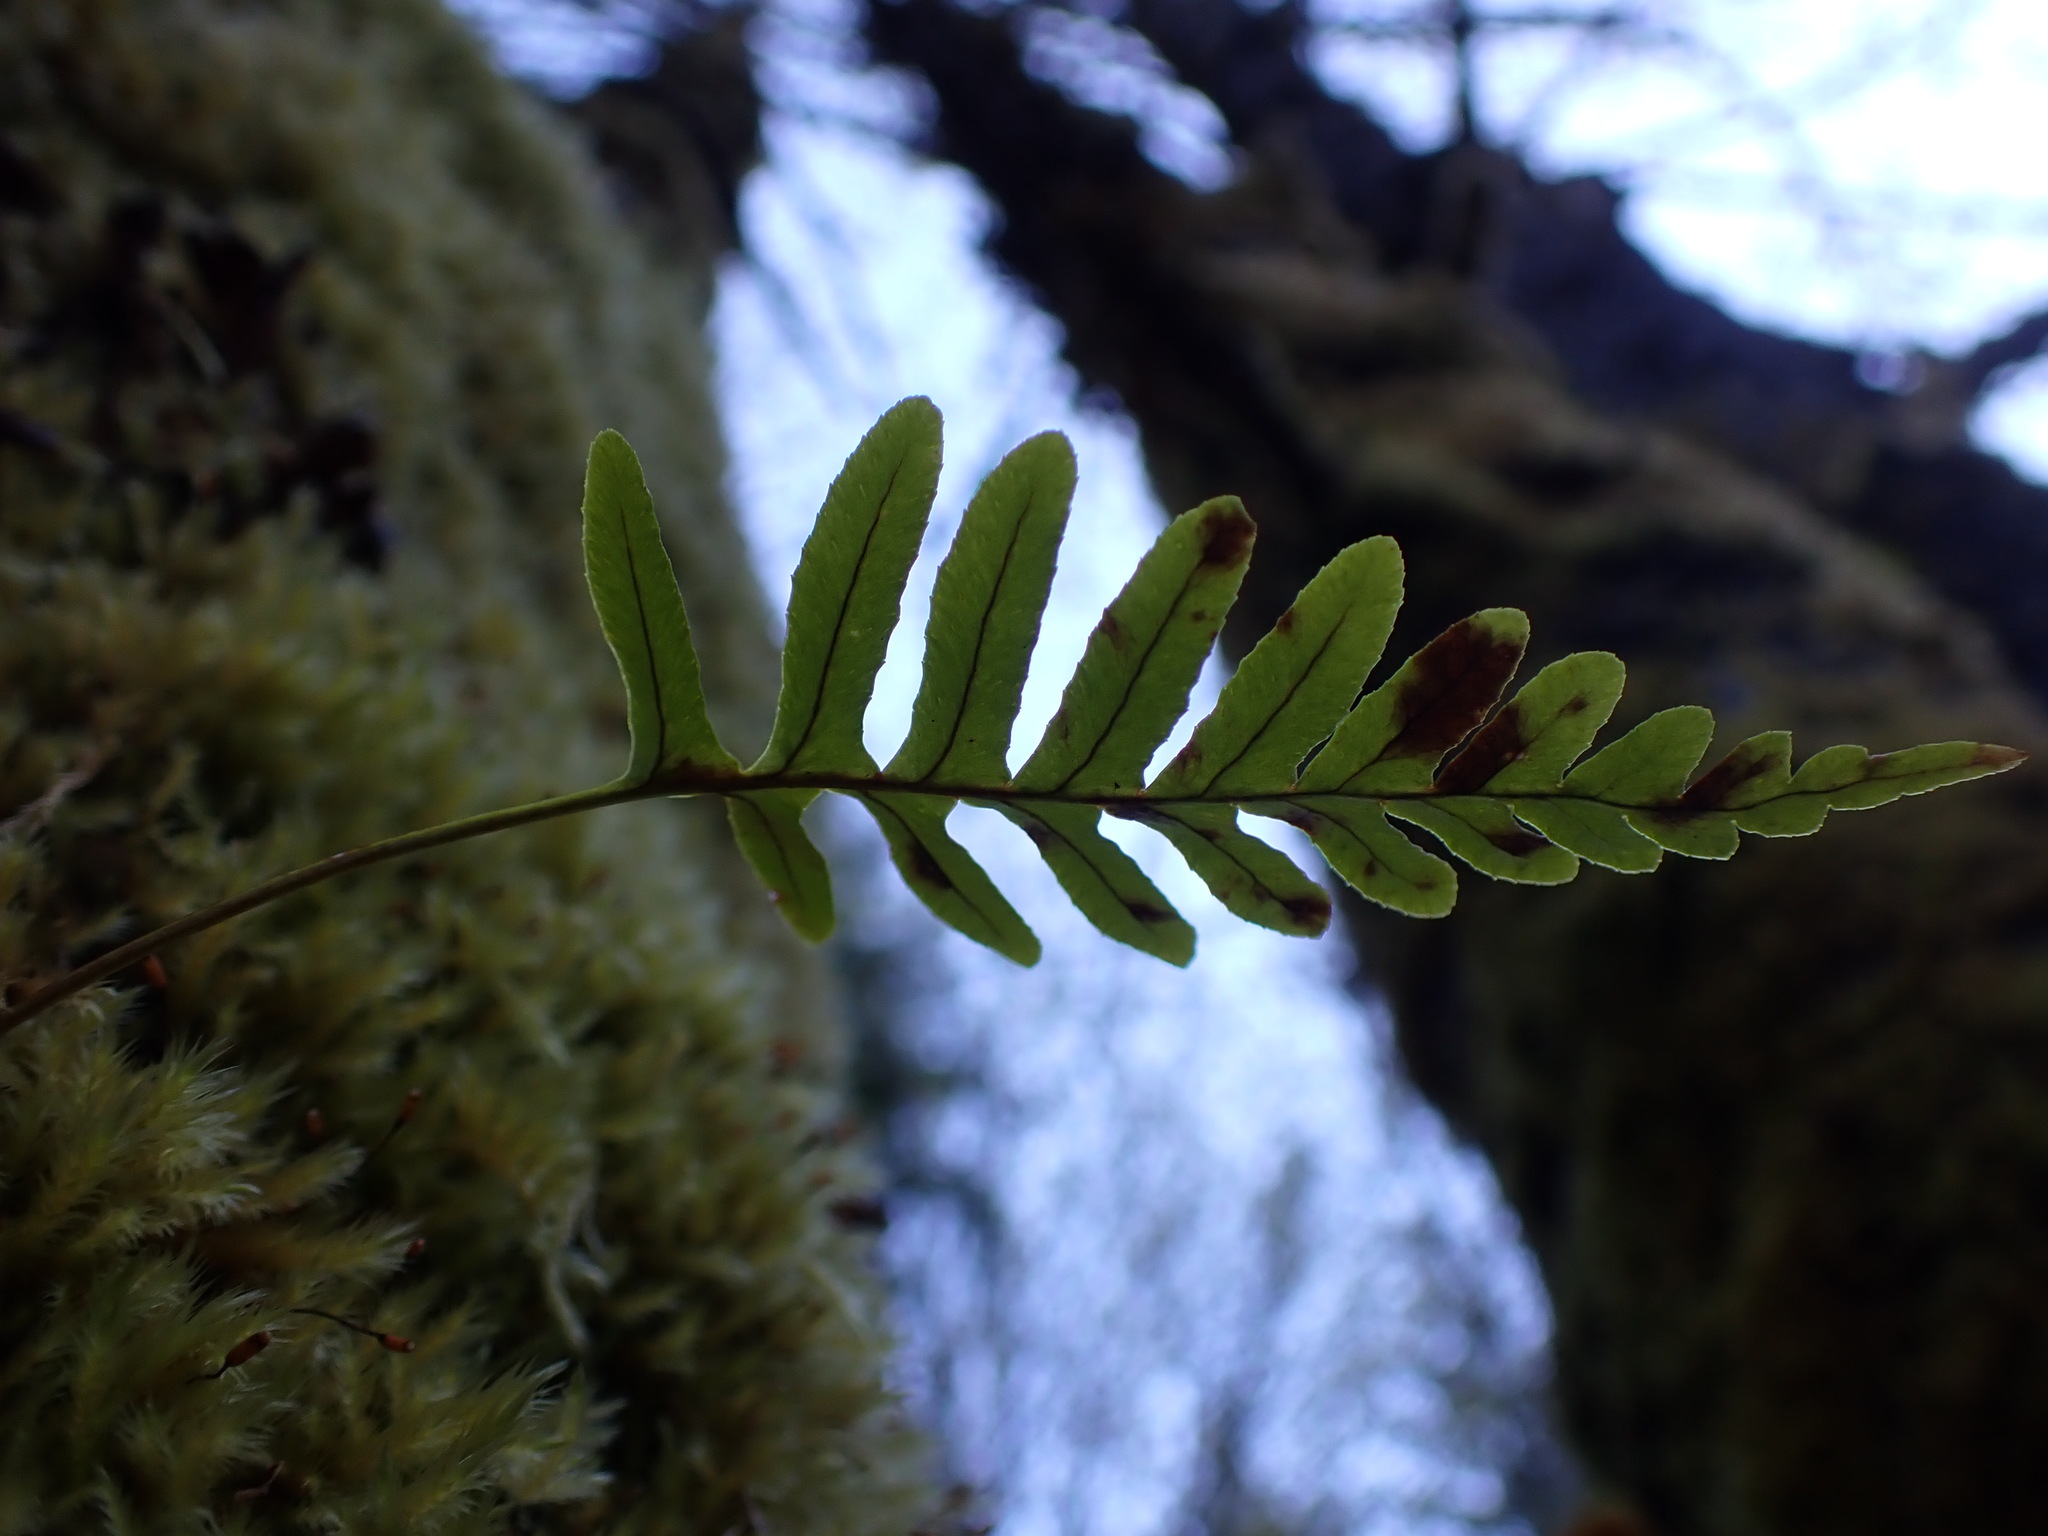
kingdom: Plantae
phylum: Tracheophyta
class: Polypodiopsida
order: Polypodiales
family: Polypodiaceae
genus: Polypodium
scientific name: Polypodium glycyrrhiza
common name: Licorice fern
